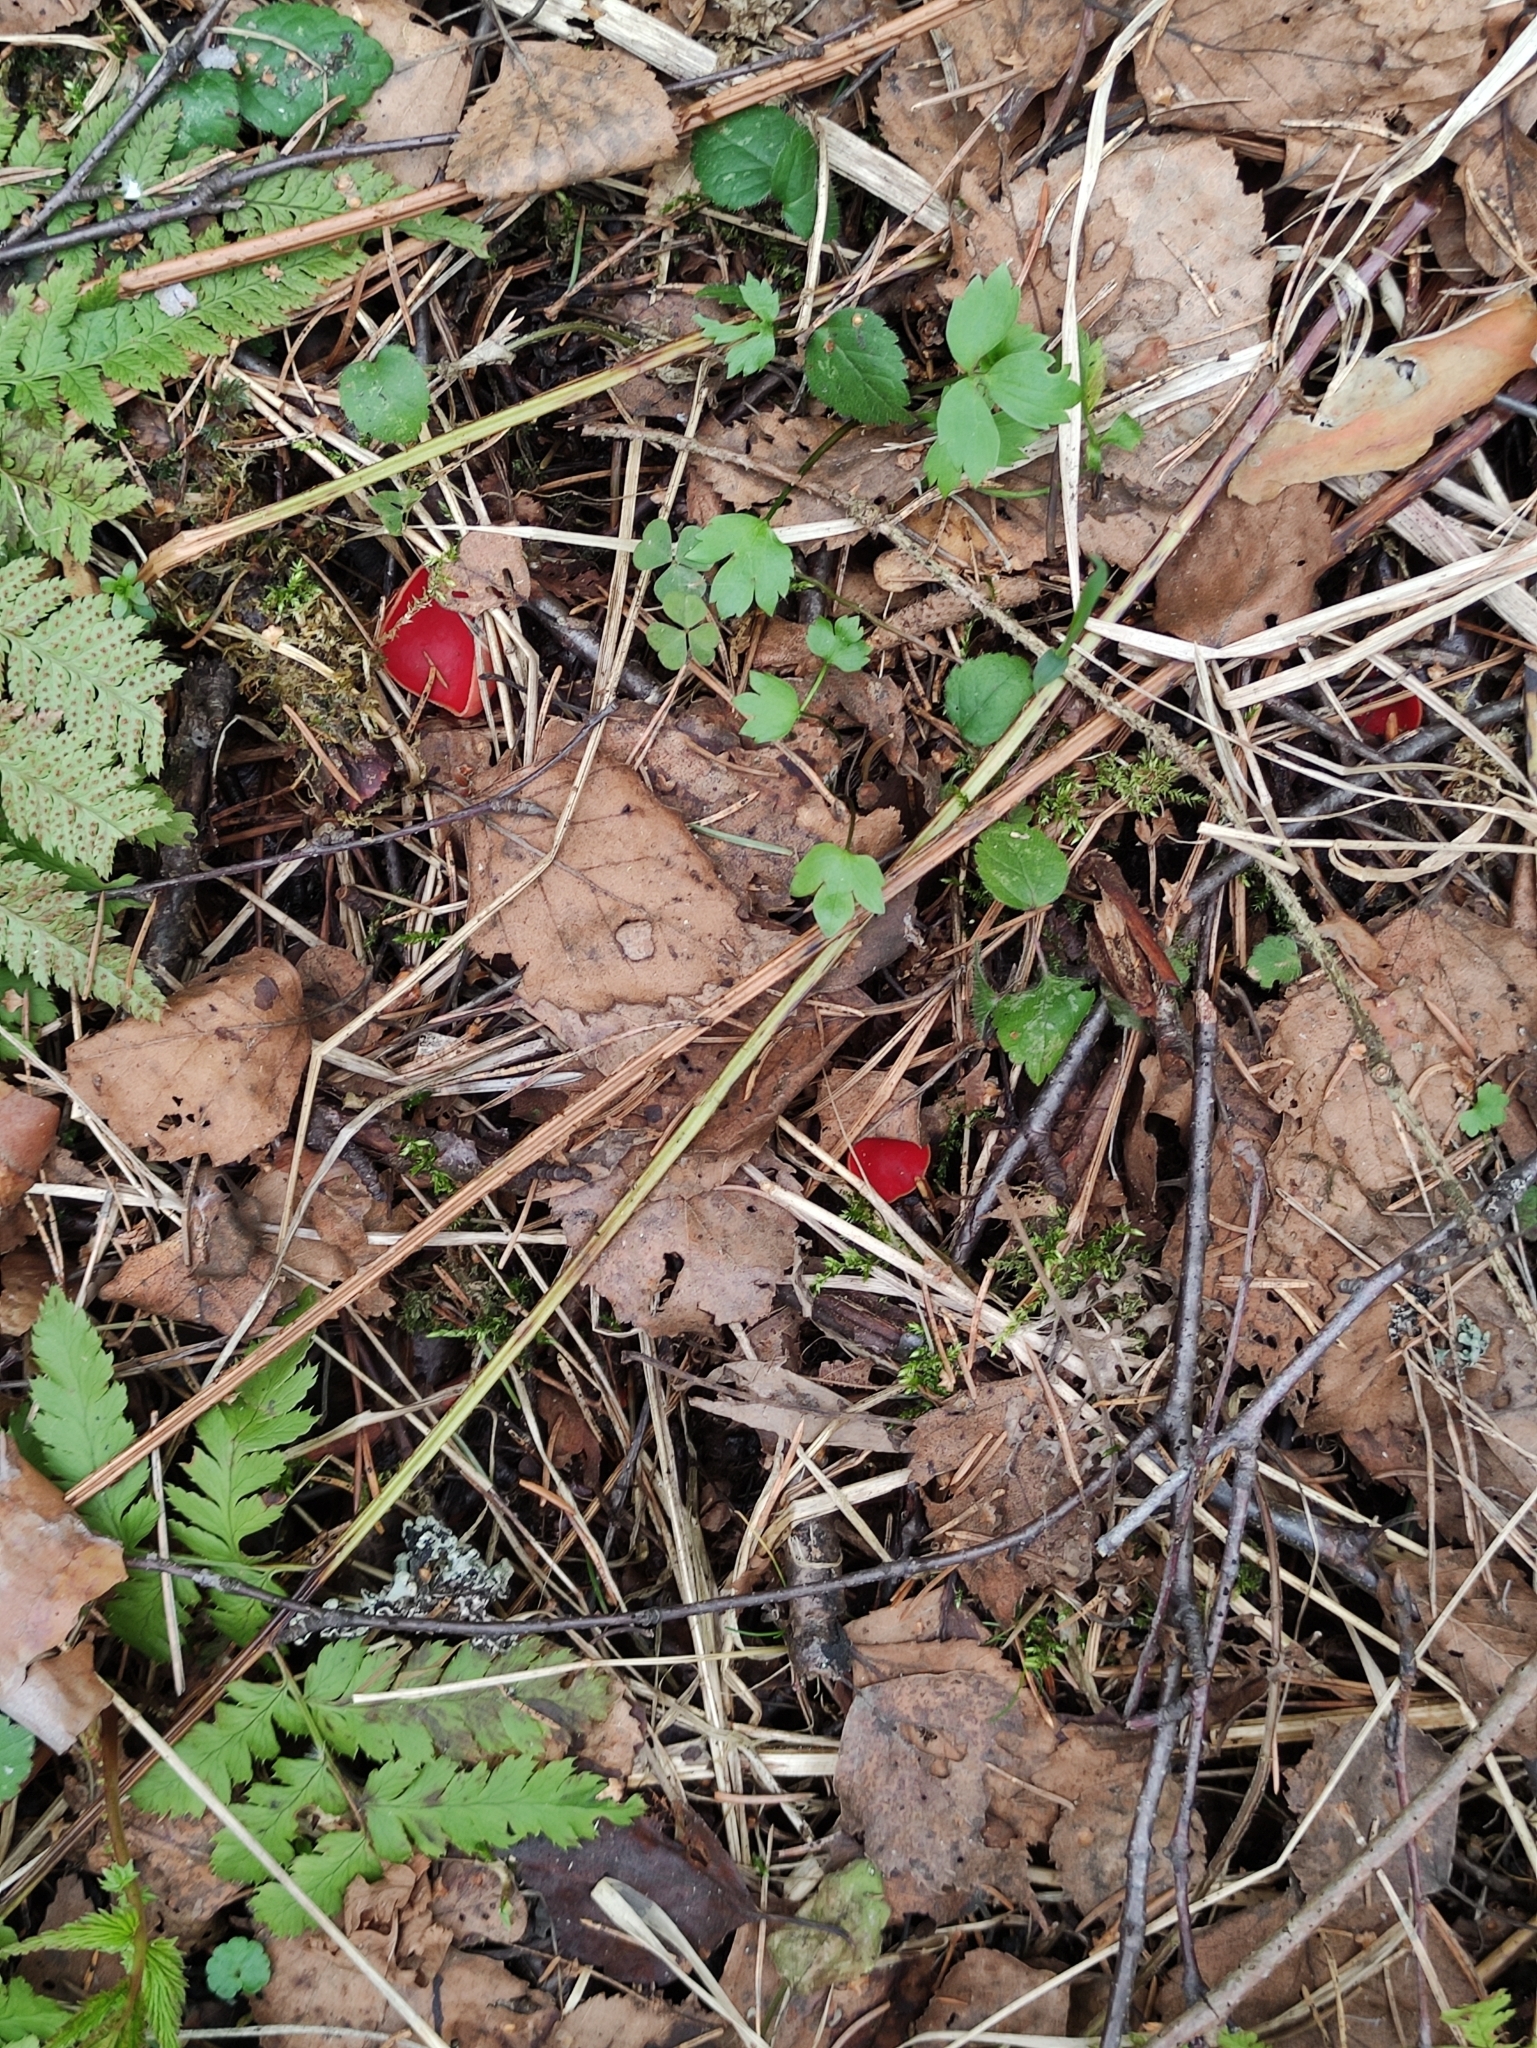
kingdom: Fungi
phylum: Ascomycota
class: Pezizomycetes
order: Pezizales
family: Sarcoscyphaceae
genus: Sarcoscypha
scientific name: Sarcoscypha austriaca
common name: Scarlet elfcup
